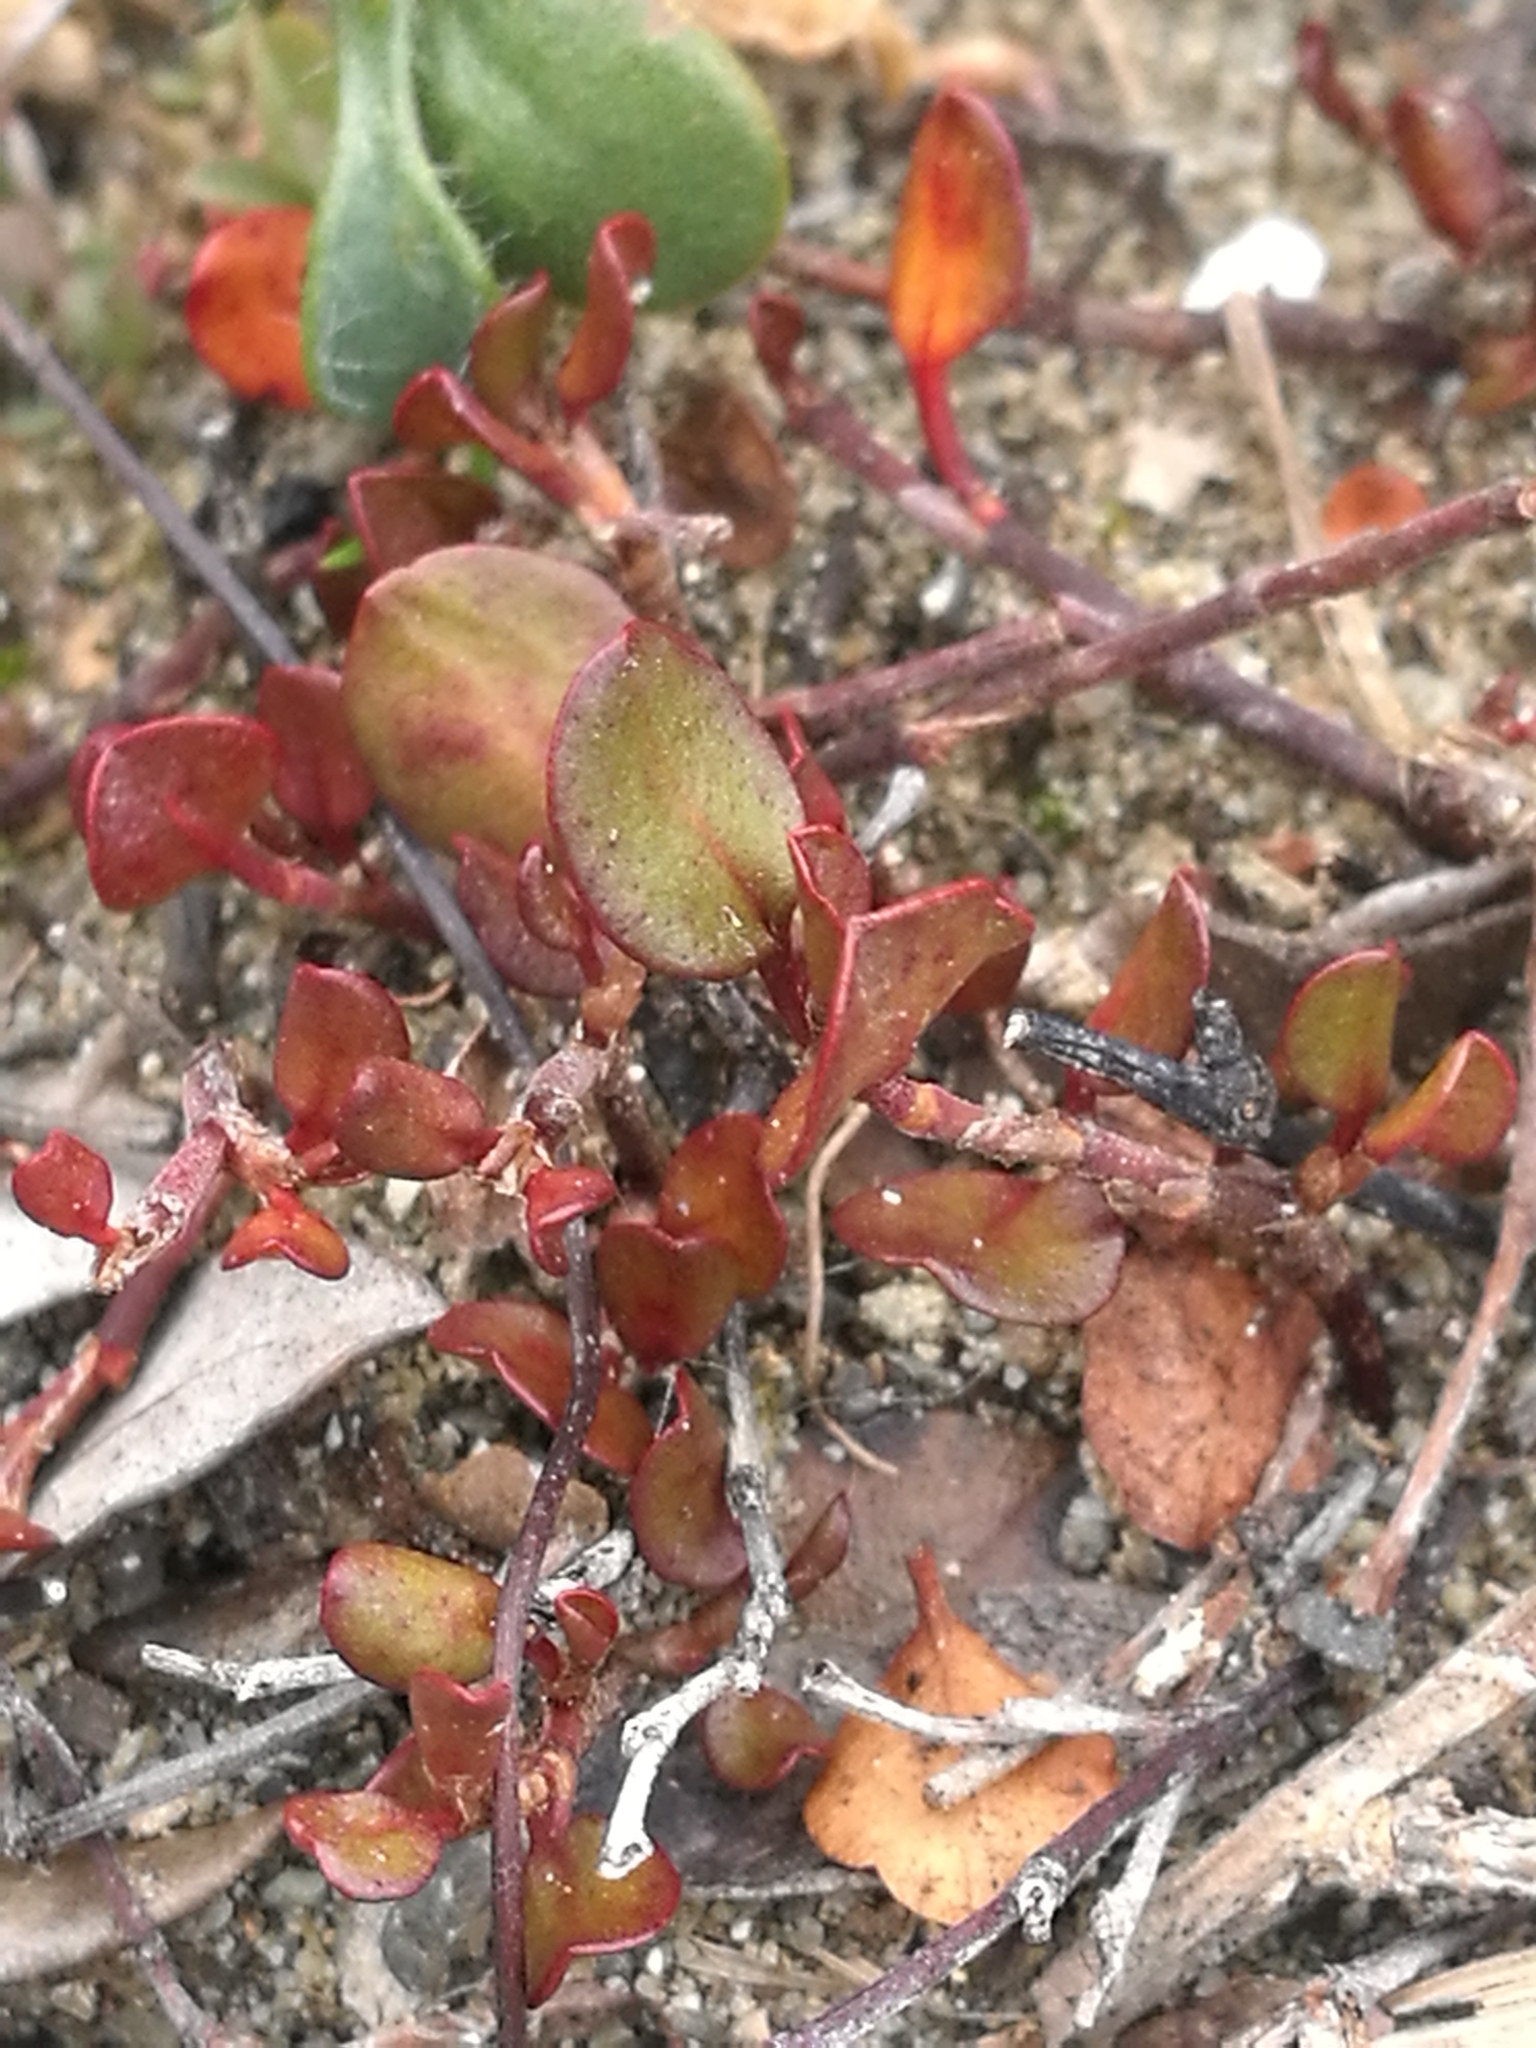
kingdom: Plantae
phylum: Tracheophyta
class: Magnoliopsida
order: Caryophyllales
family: Polygonaceae
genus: Muehlenbeckia
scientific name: Muehlenbeckia axillaris
